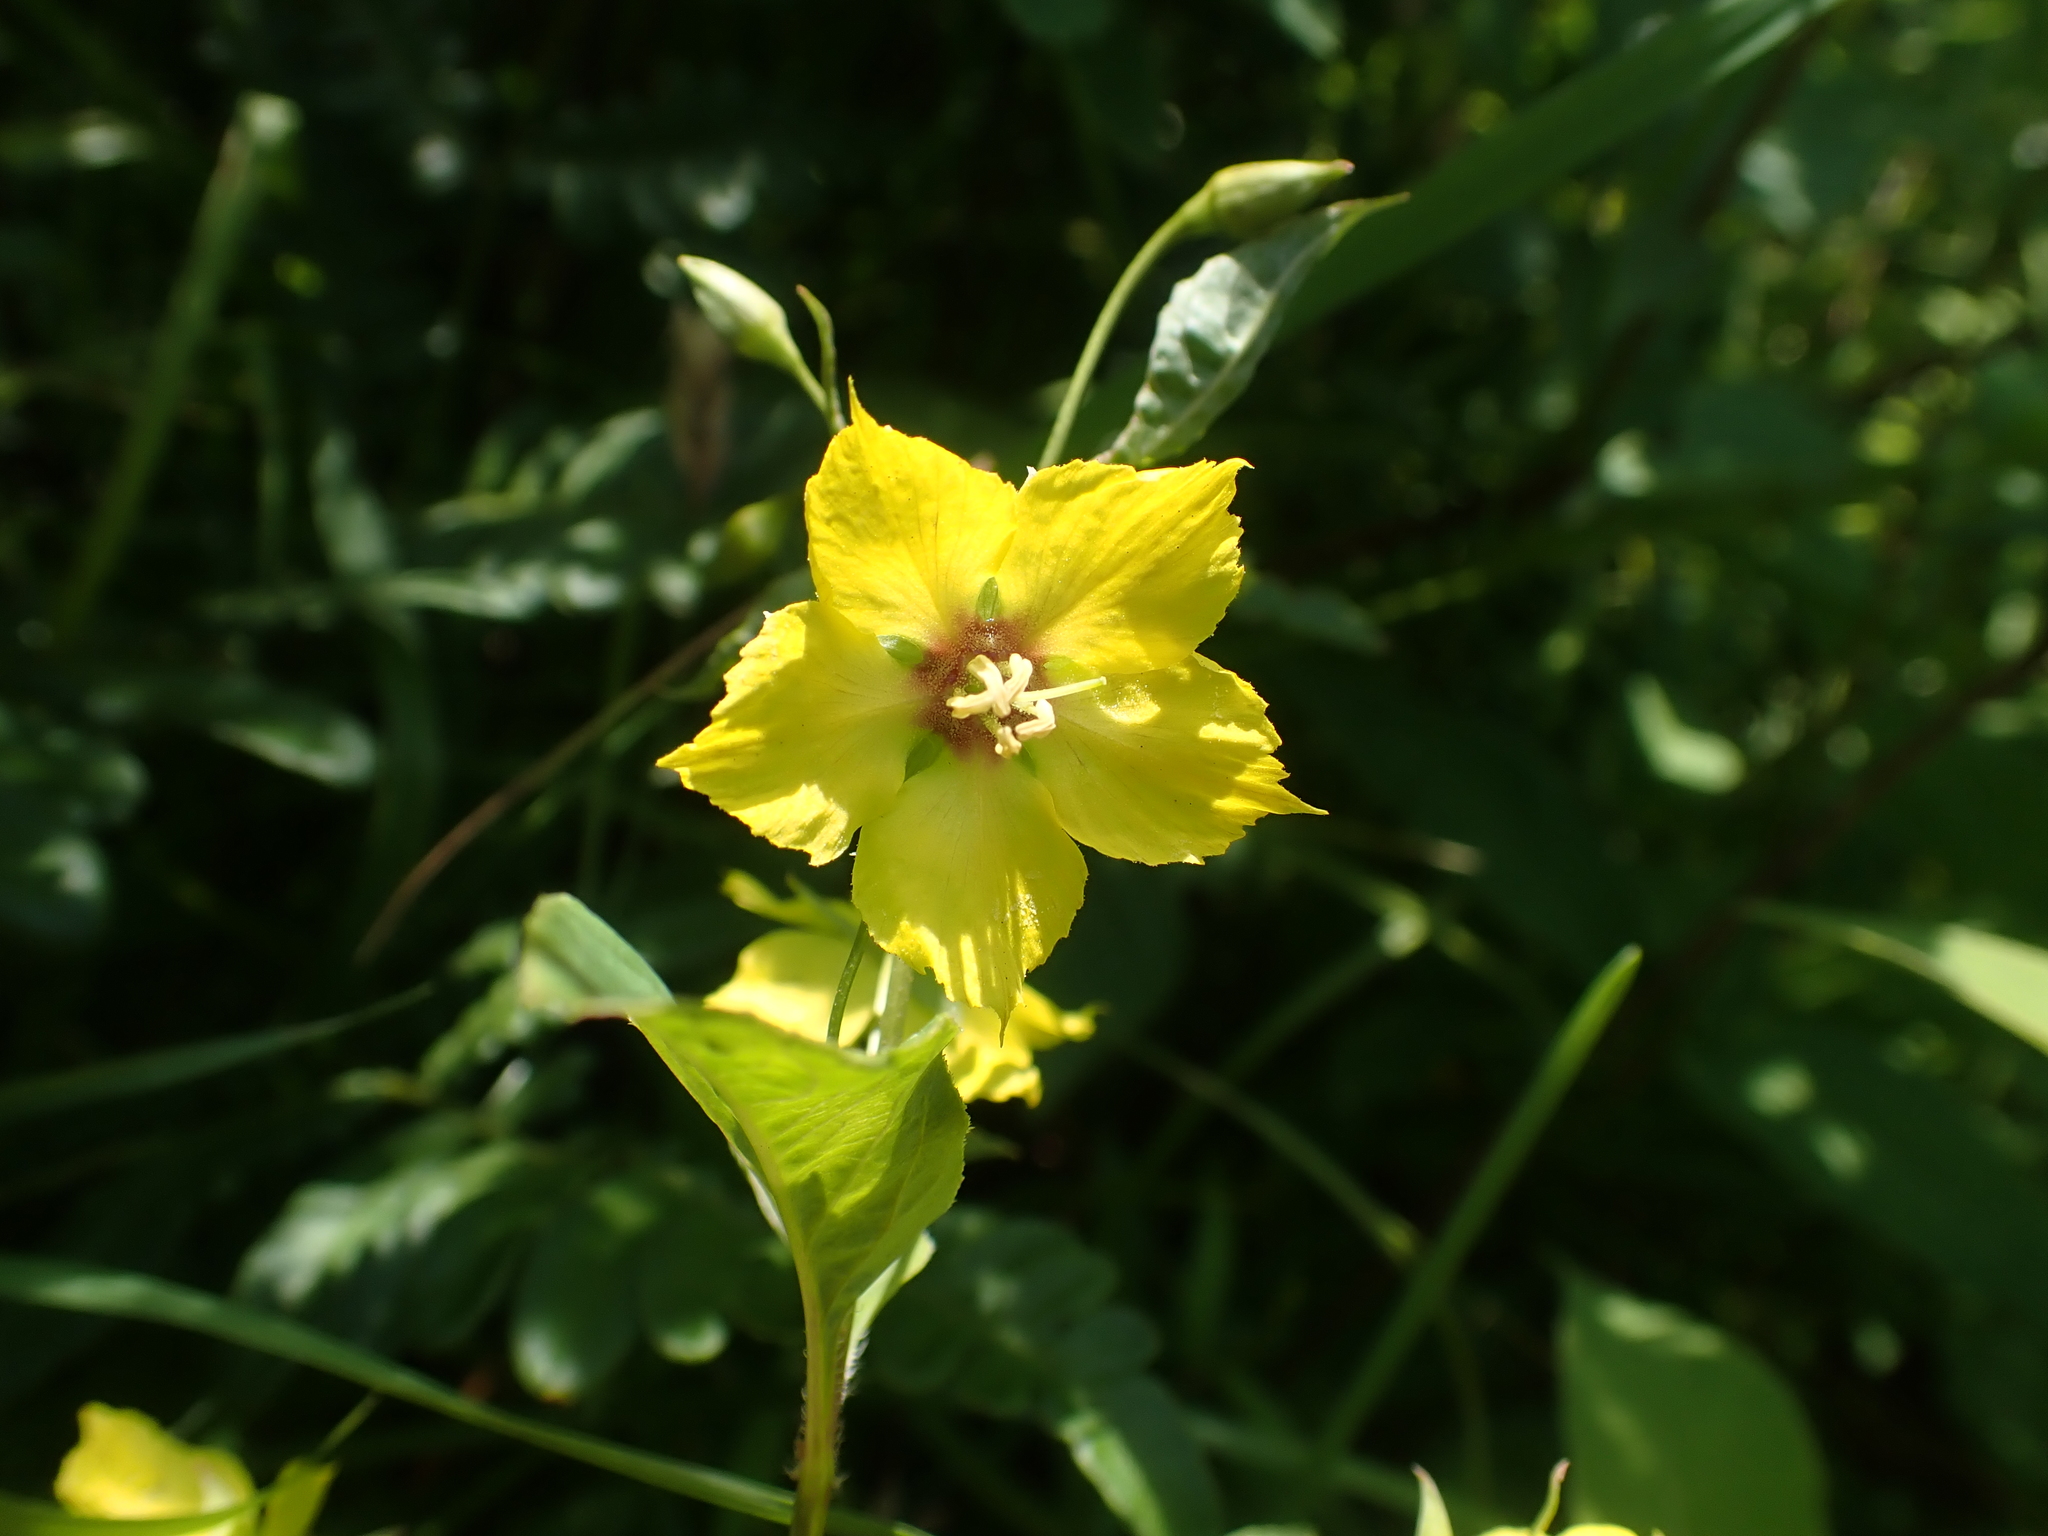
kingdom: Plantae
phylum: Tracheophyta
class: Magnoliopsida
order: Ericales
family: Primulaceae
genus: Lysimachia
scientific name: Lysimachia ciliata
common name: Fringed loosestrife
